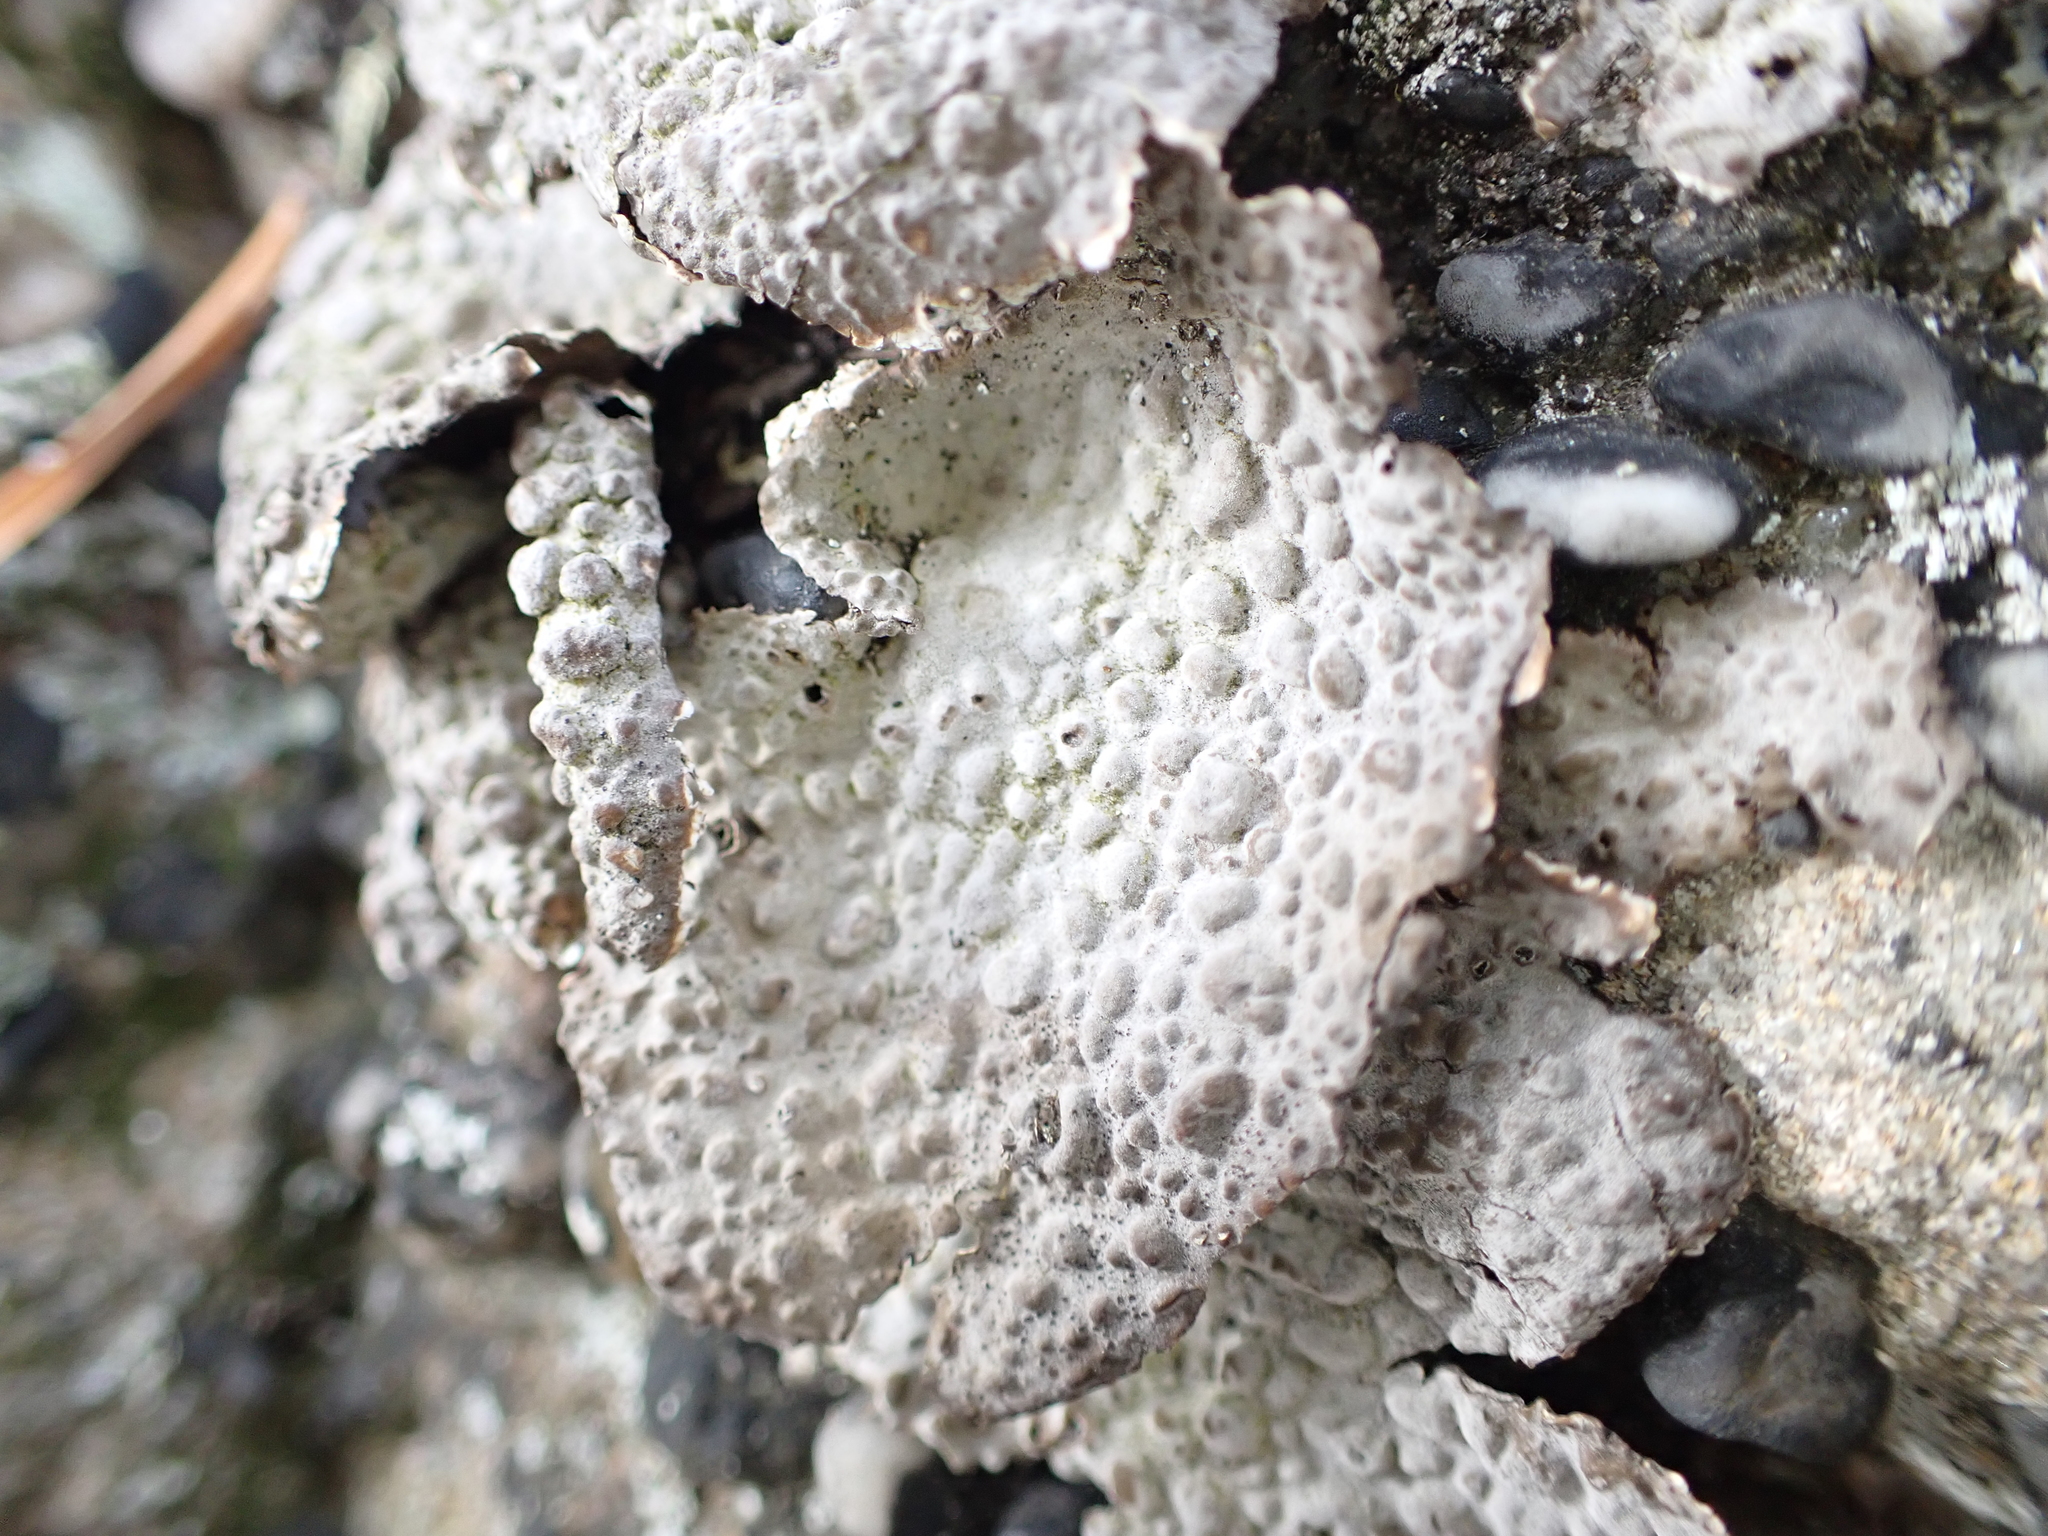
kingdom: Fungi
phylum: Ascomycota
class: Lecanoromycetes
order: Umbilicariales
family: Umbilicariaceae
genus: Lasallia
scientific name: Lasallia papulosa
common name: Common toadskin lichen
